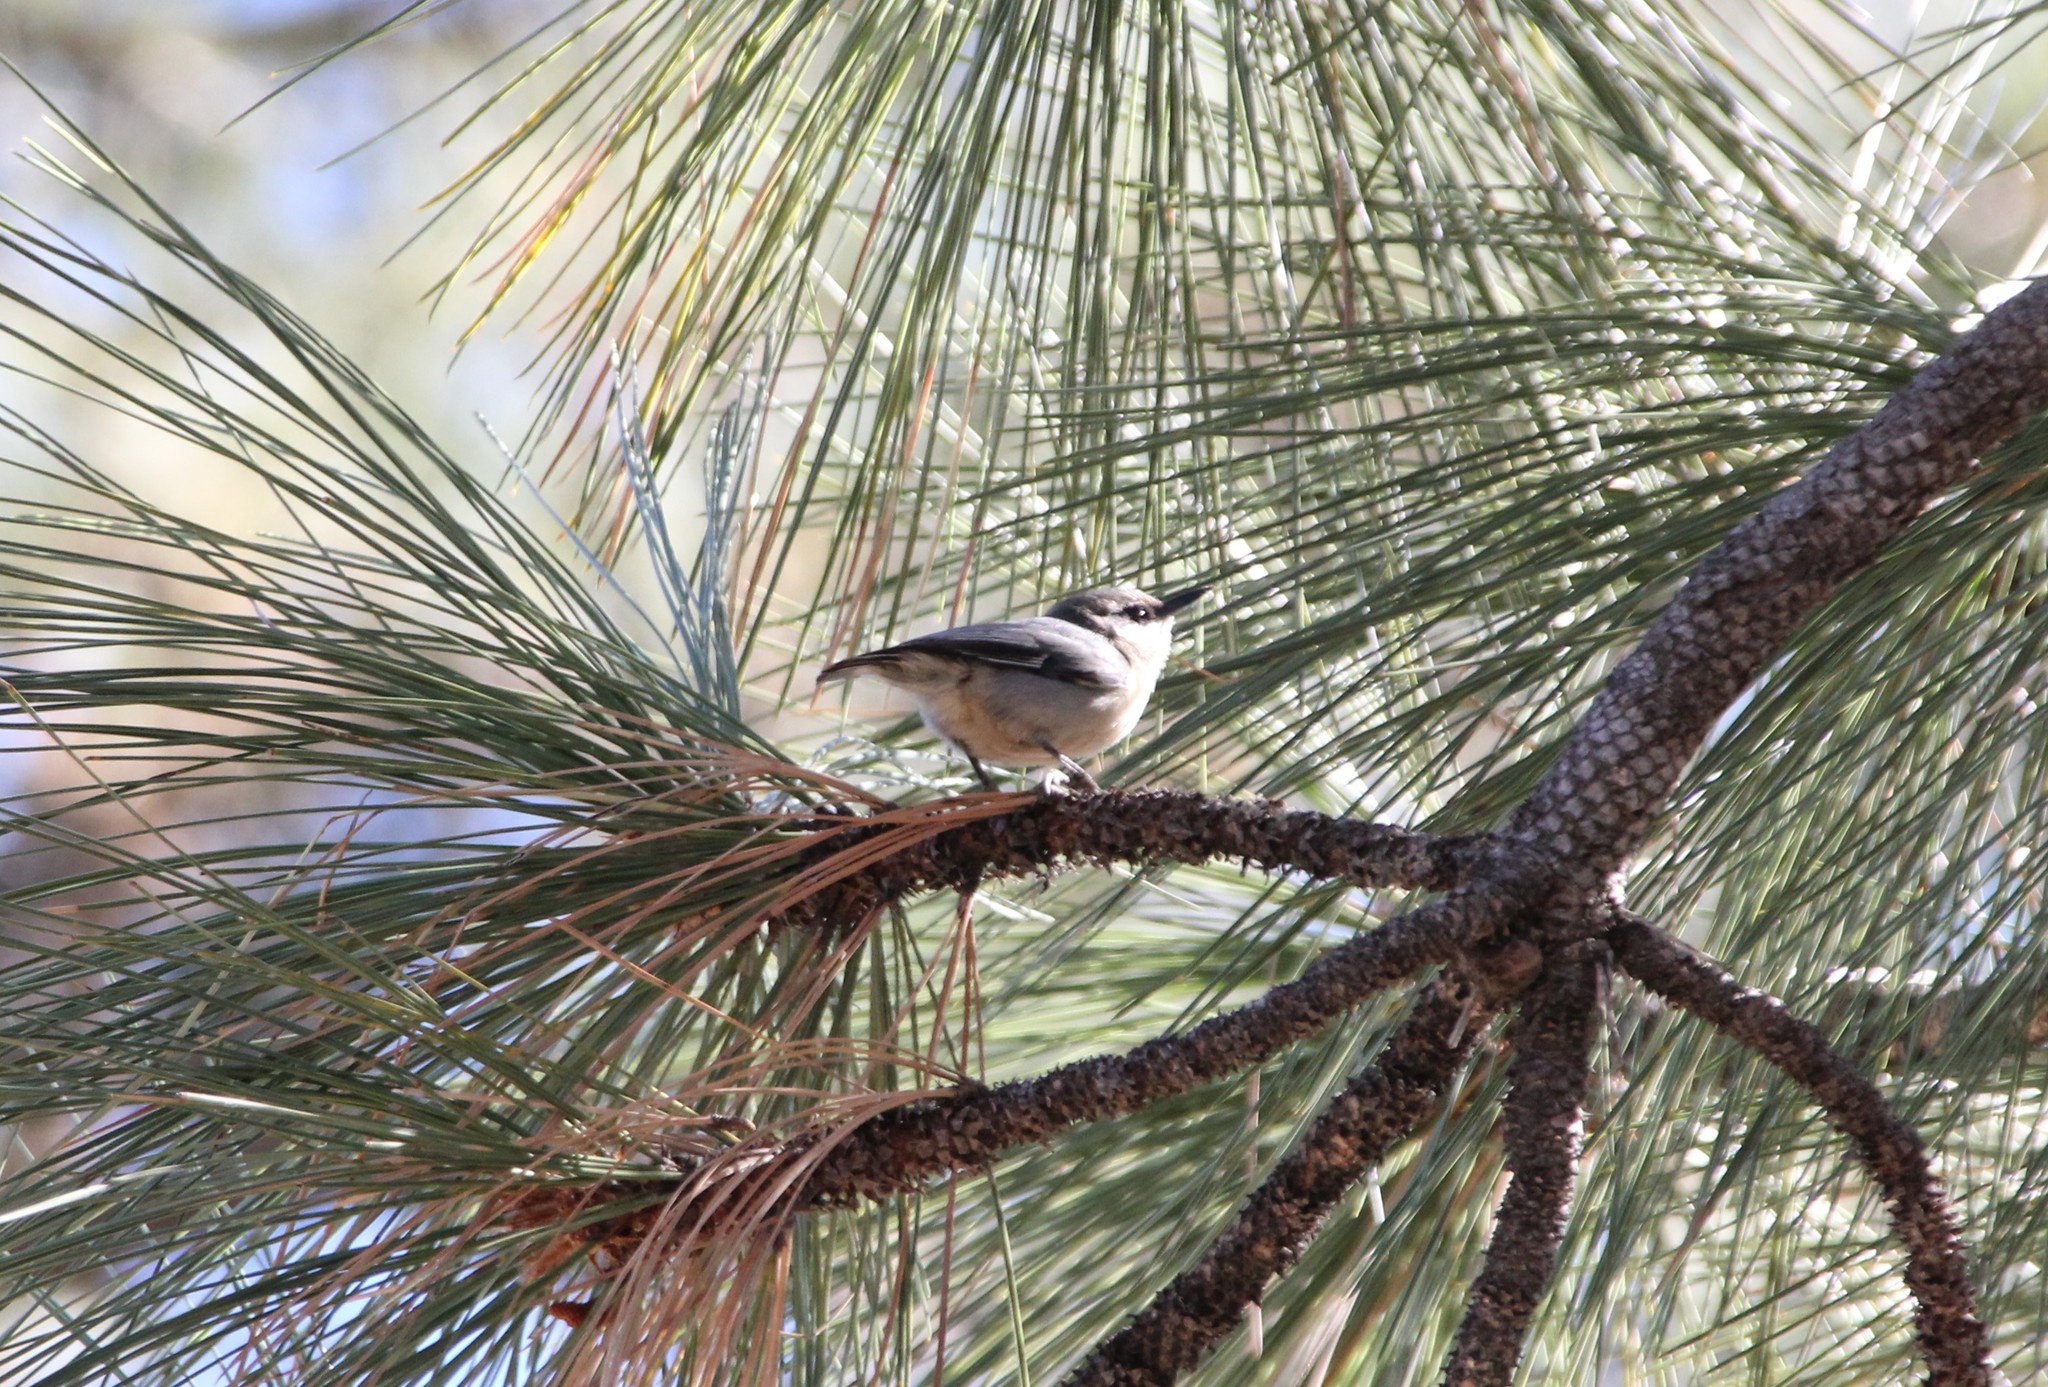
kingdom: Animalia
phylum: Chordata
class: Aves
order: Passeriformes
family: Sittidae
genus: Sitta
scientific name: Sitta pygmaea
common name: Pygmy nuthatch
